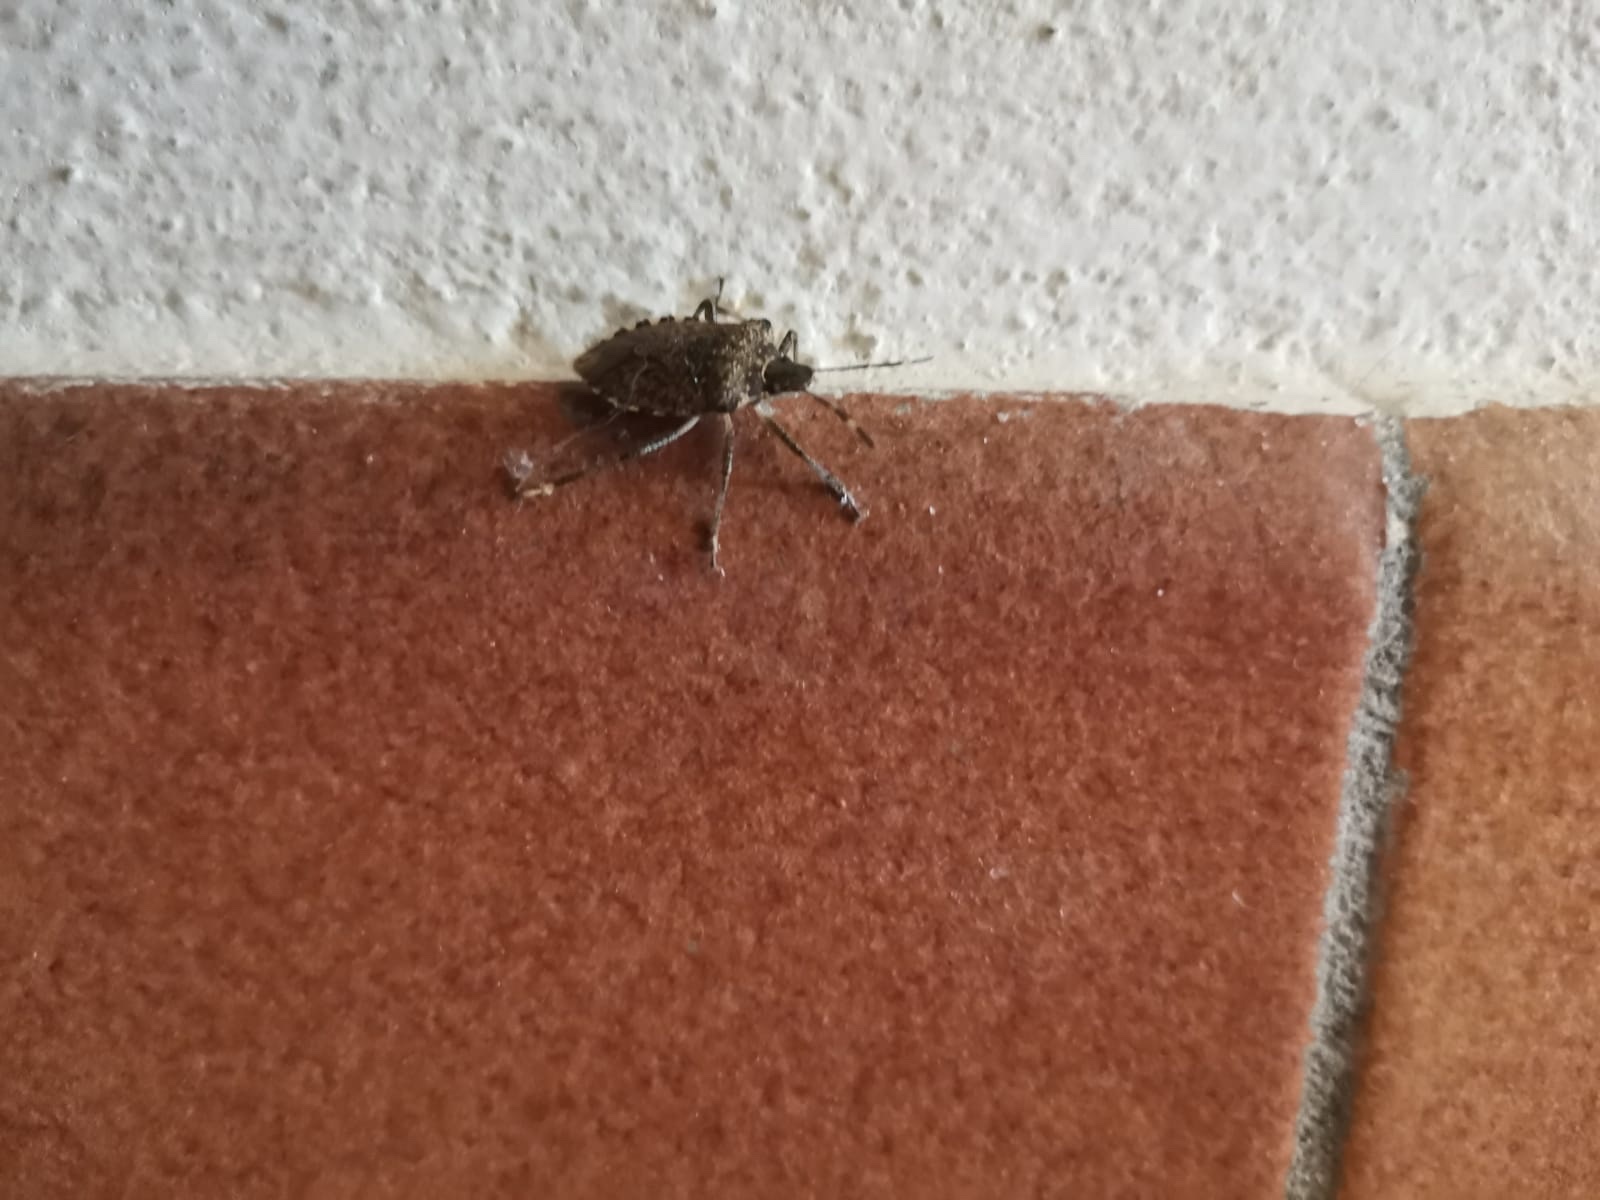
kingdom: Animalia
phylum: Arthropoda
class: Insecta
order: Hemiptera
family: Pentatomidae
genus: Halyomorpha
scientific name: Halyomorpha halys
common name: Brown marmorated stink bug
